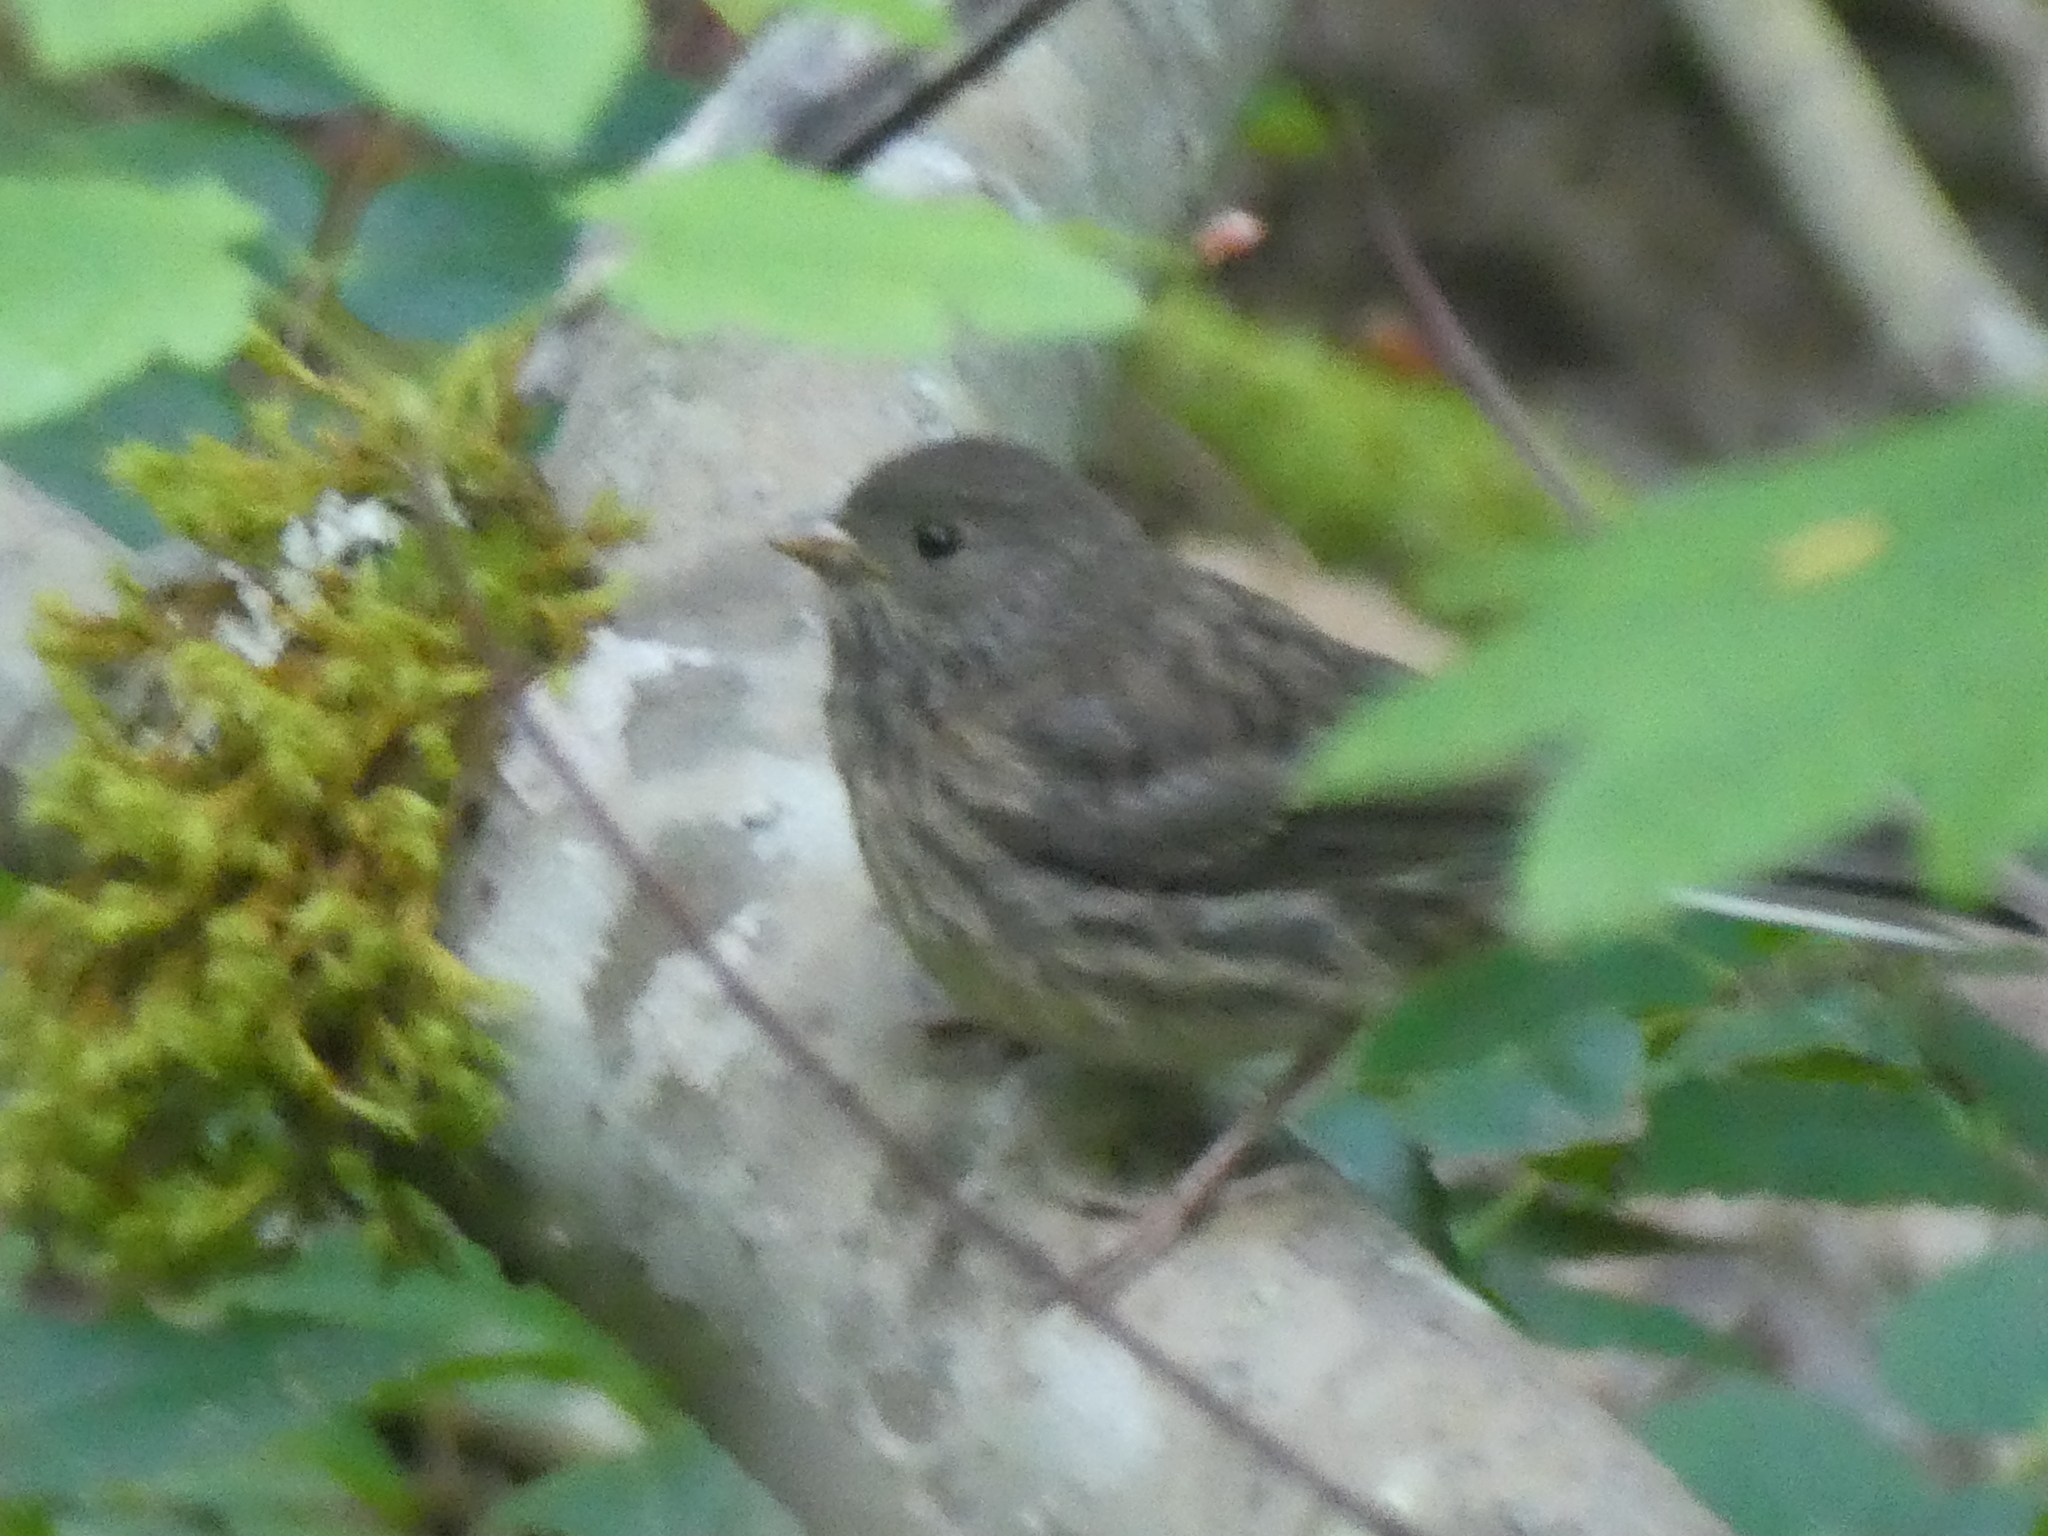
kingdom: Animalia
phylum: Chordata
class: Aves
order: Passeriformes
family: Passerellidae
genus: Junco
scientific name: Junco hyemalis
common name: Dark-eyed junco
